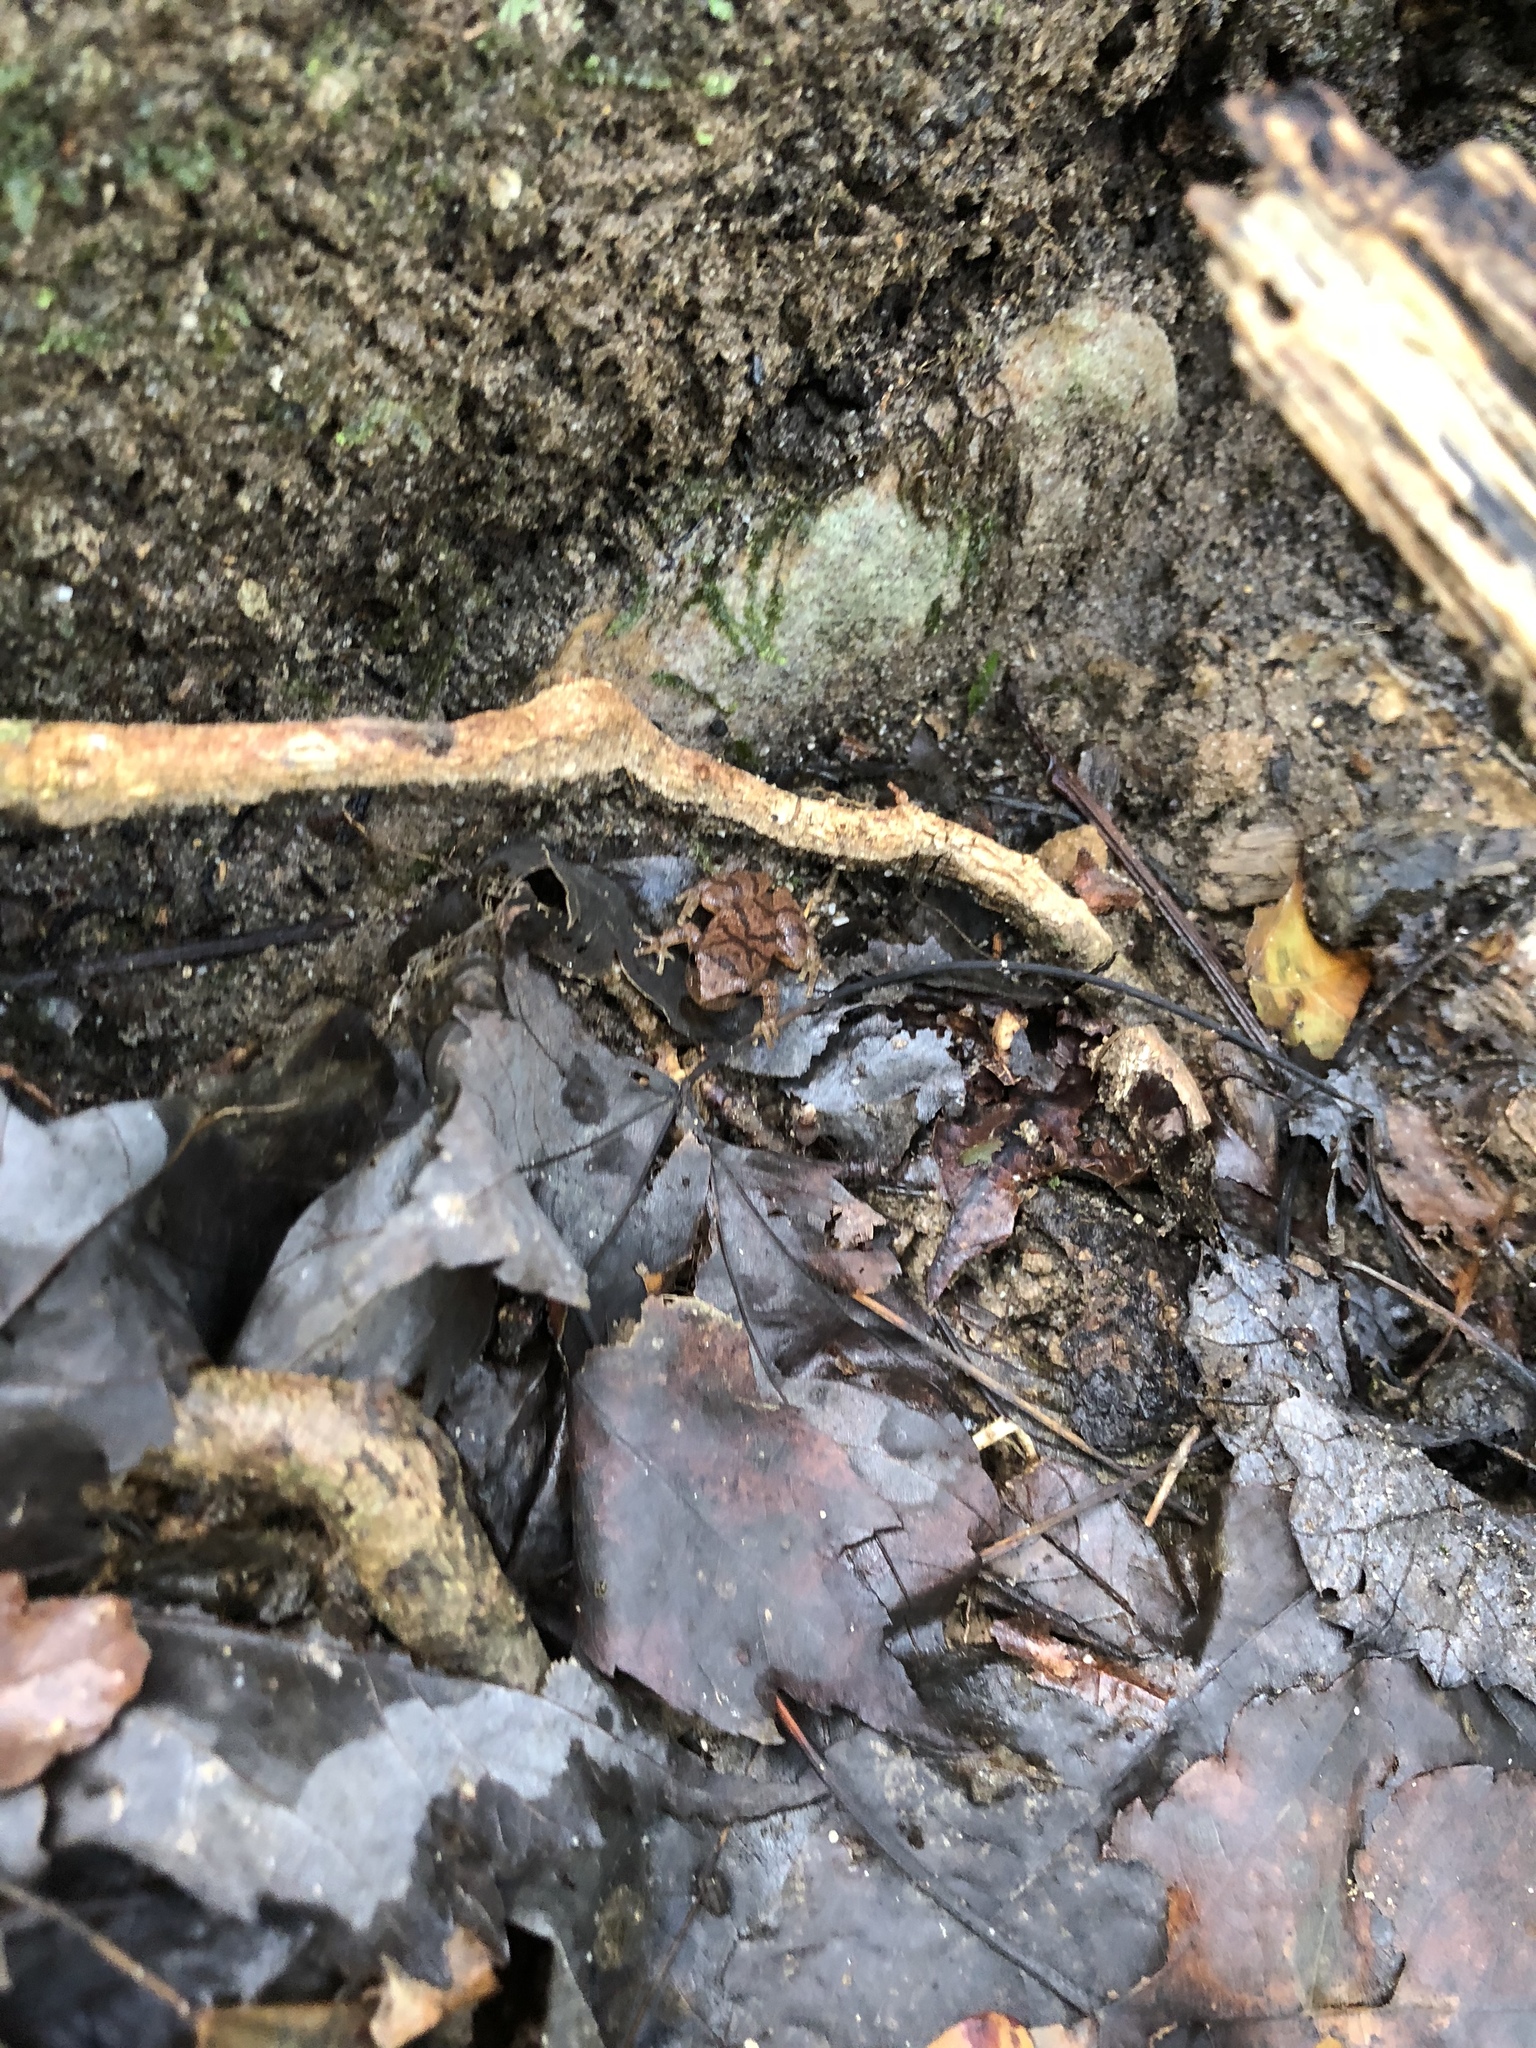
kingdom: Animalia
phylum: Chordata
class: Amphibia
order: Anura
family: Hylidae
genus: Pseudacris
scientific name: Pseudacris crucifer
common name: Spring peeper
